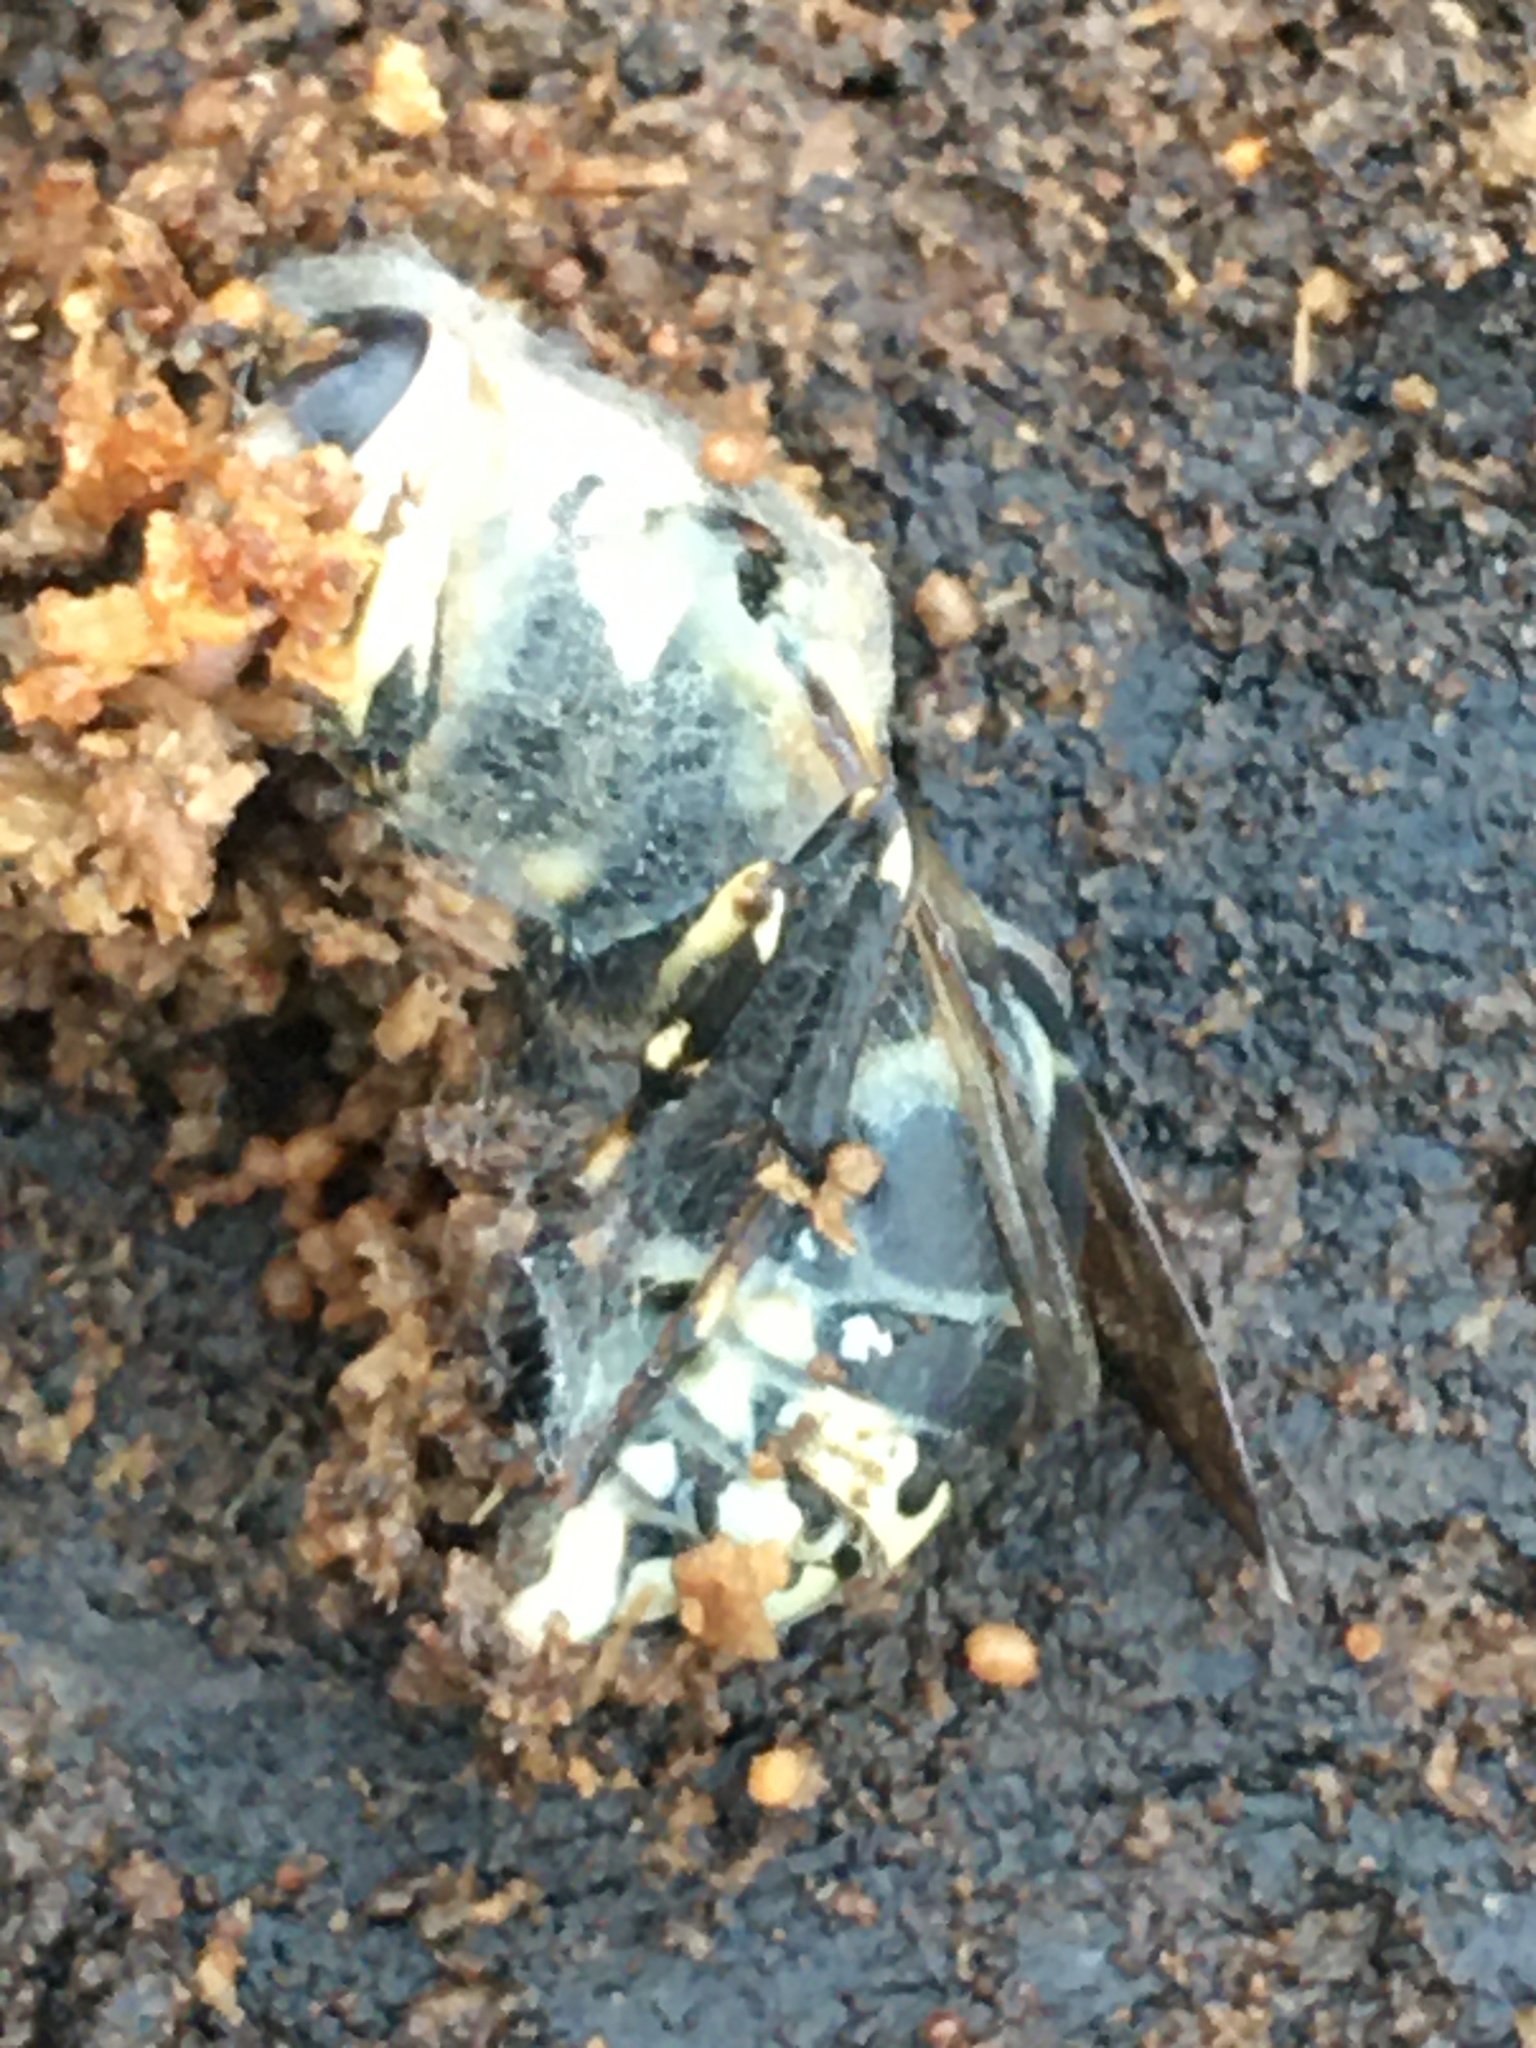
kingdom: Animalia
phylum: Arthropoda
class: Insecta
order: Hymenoptera
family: Vespidae
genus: Dolichovespula
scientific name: Dolichovespula maculata
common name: Bald-faced hornet
